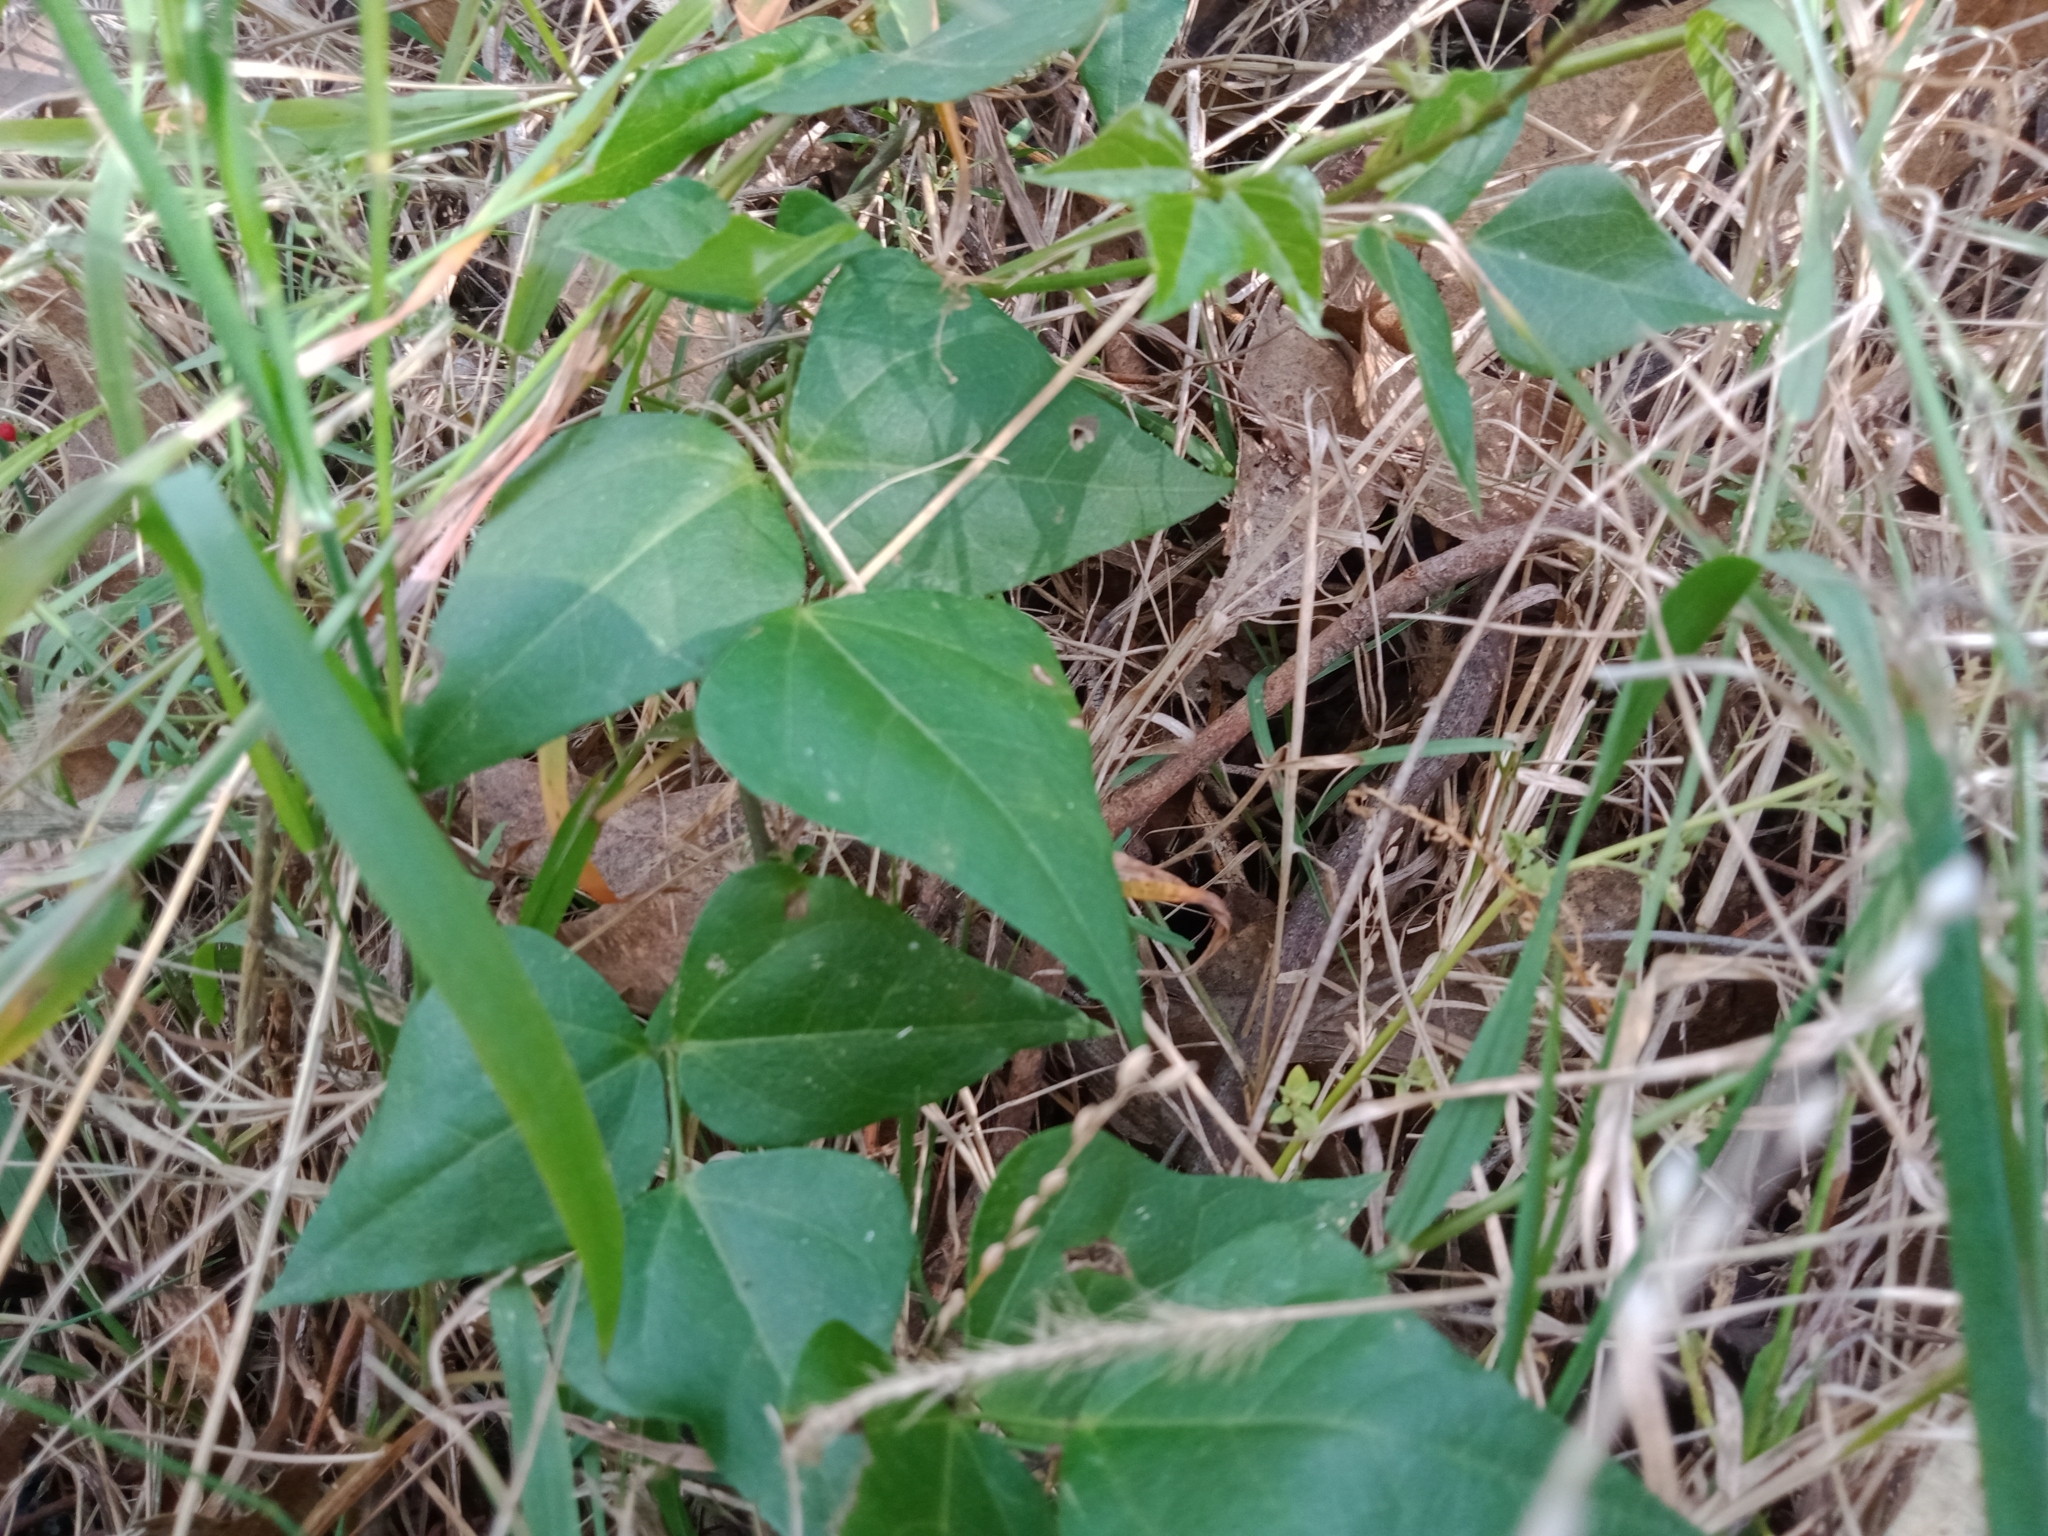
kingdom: Plantae
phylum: Tracheophyta
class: Magnoliopsida
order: Fabales
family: Fabaceae
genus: Dipogon
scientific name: Dipogon lignosus
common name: Okie bean
